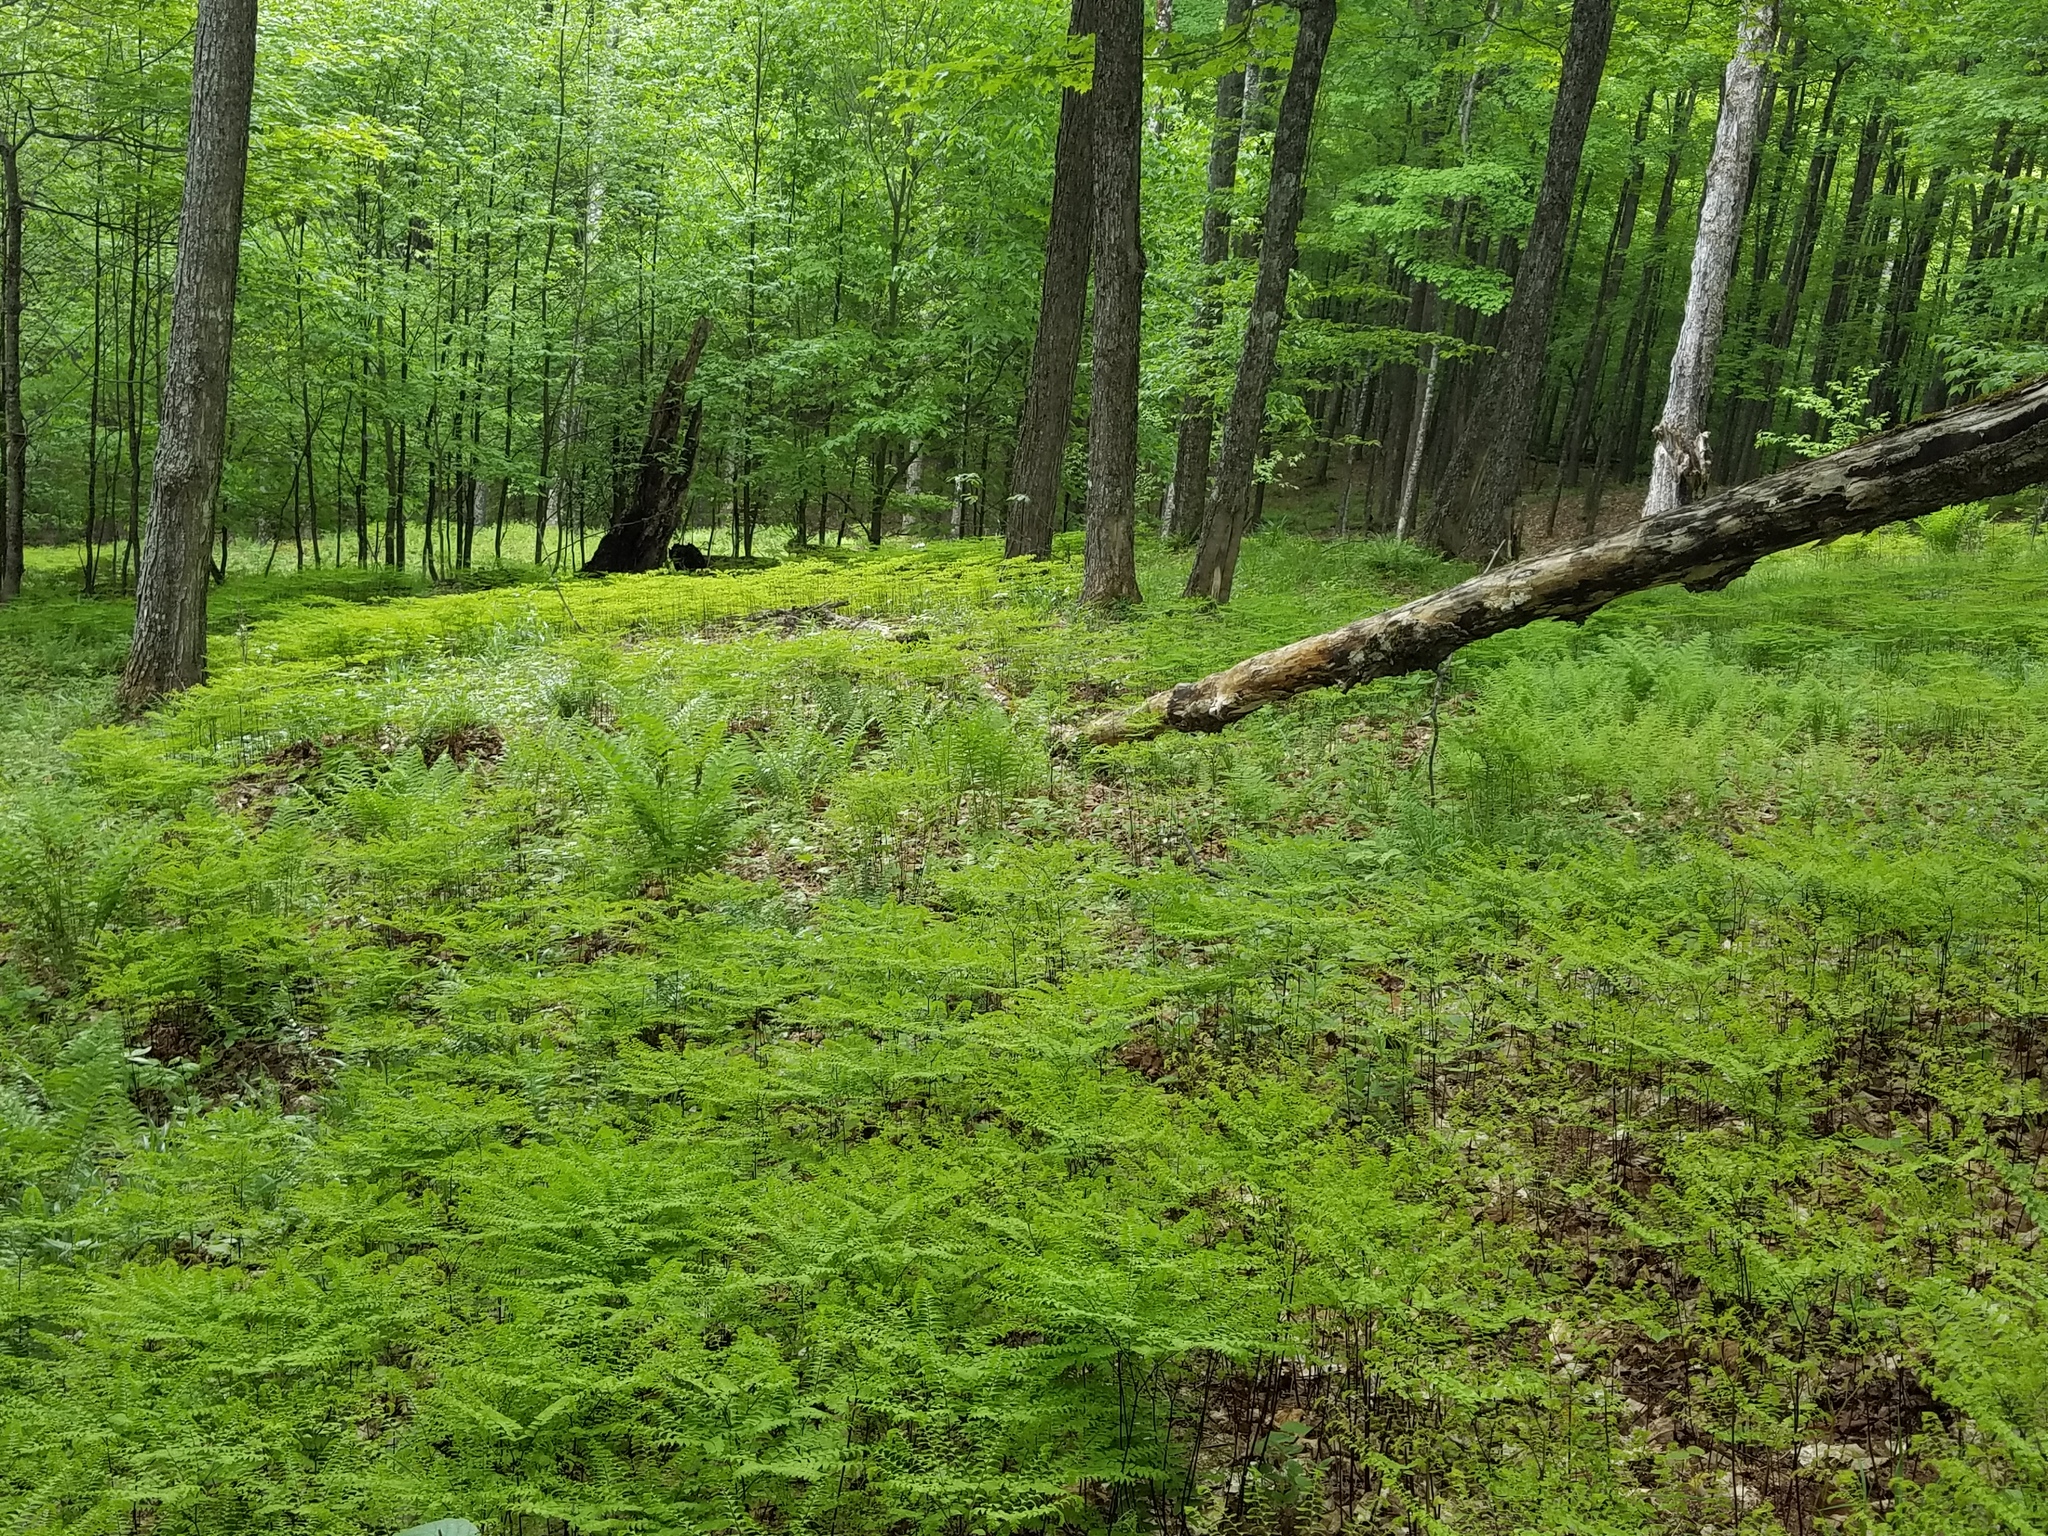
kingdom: Plantae
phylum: Tracheophyta
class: Polypodiopsida
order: Polypodiales
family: Pteridaceae
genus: Adiantum
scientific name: Adiantum pedatum
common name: Five-finger fern
